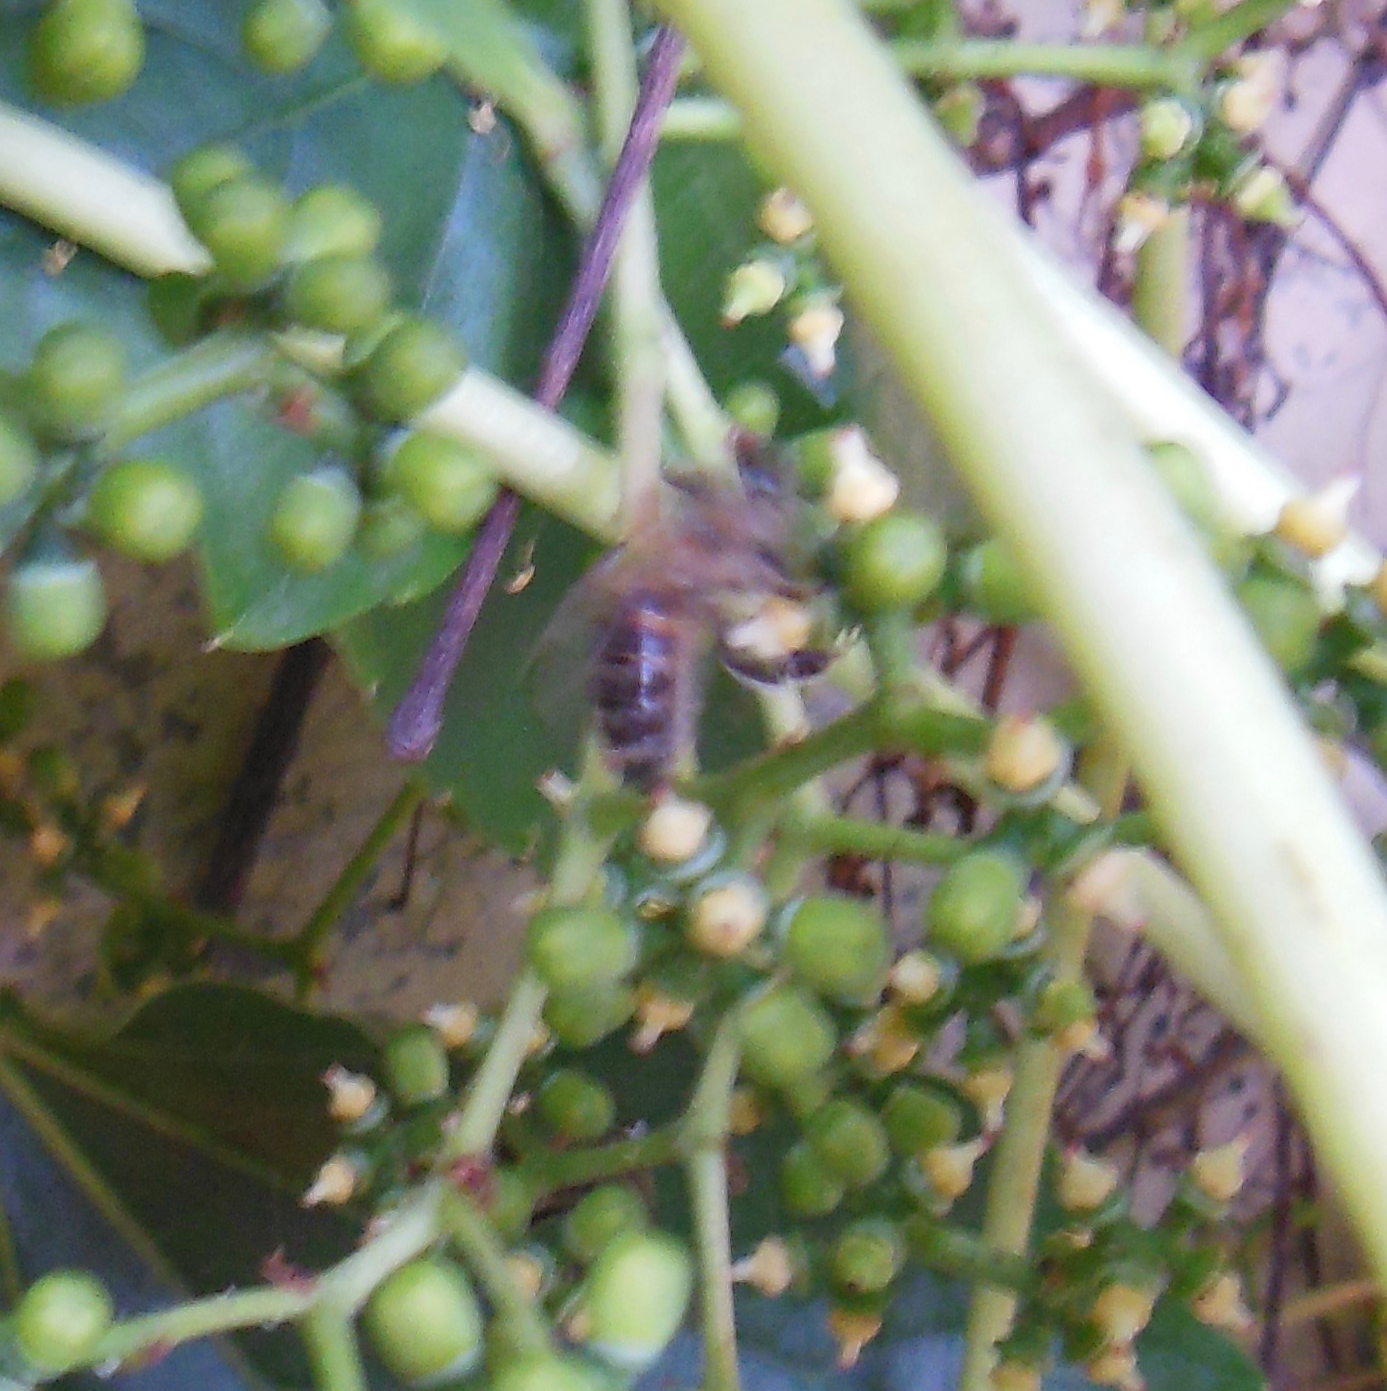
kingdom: Animalia
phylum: Arthropoda
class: Insecta
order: Hymenoptera
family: Apidae
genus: Apis
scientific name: Apis mellifera
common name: Honey bee
